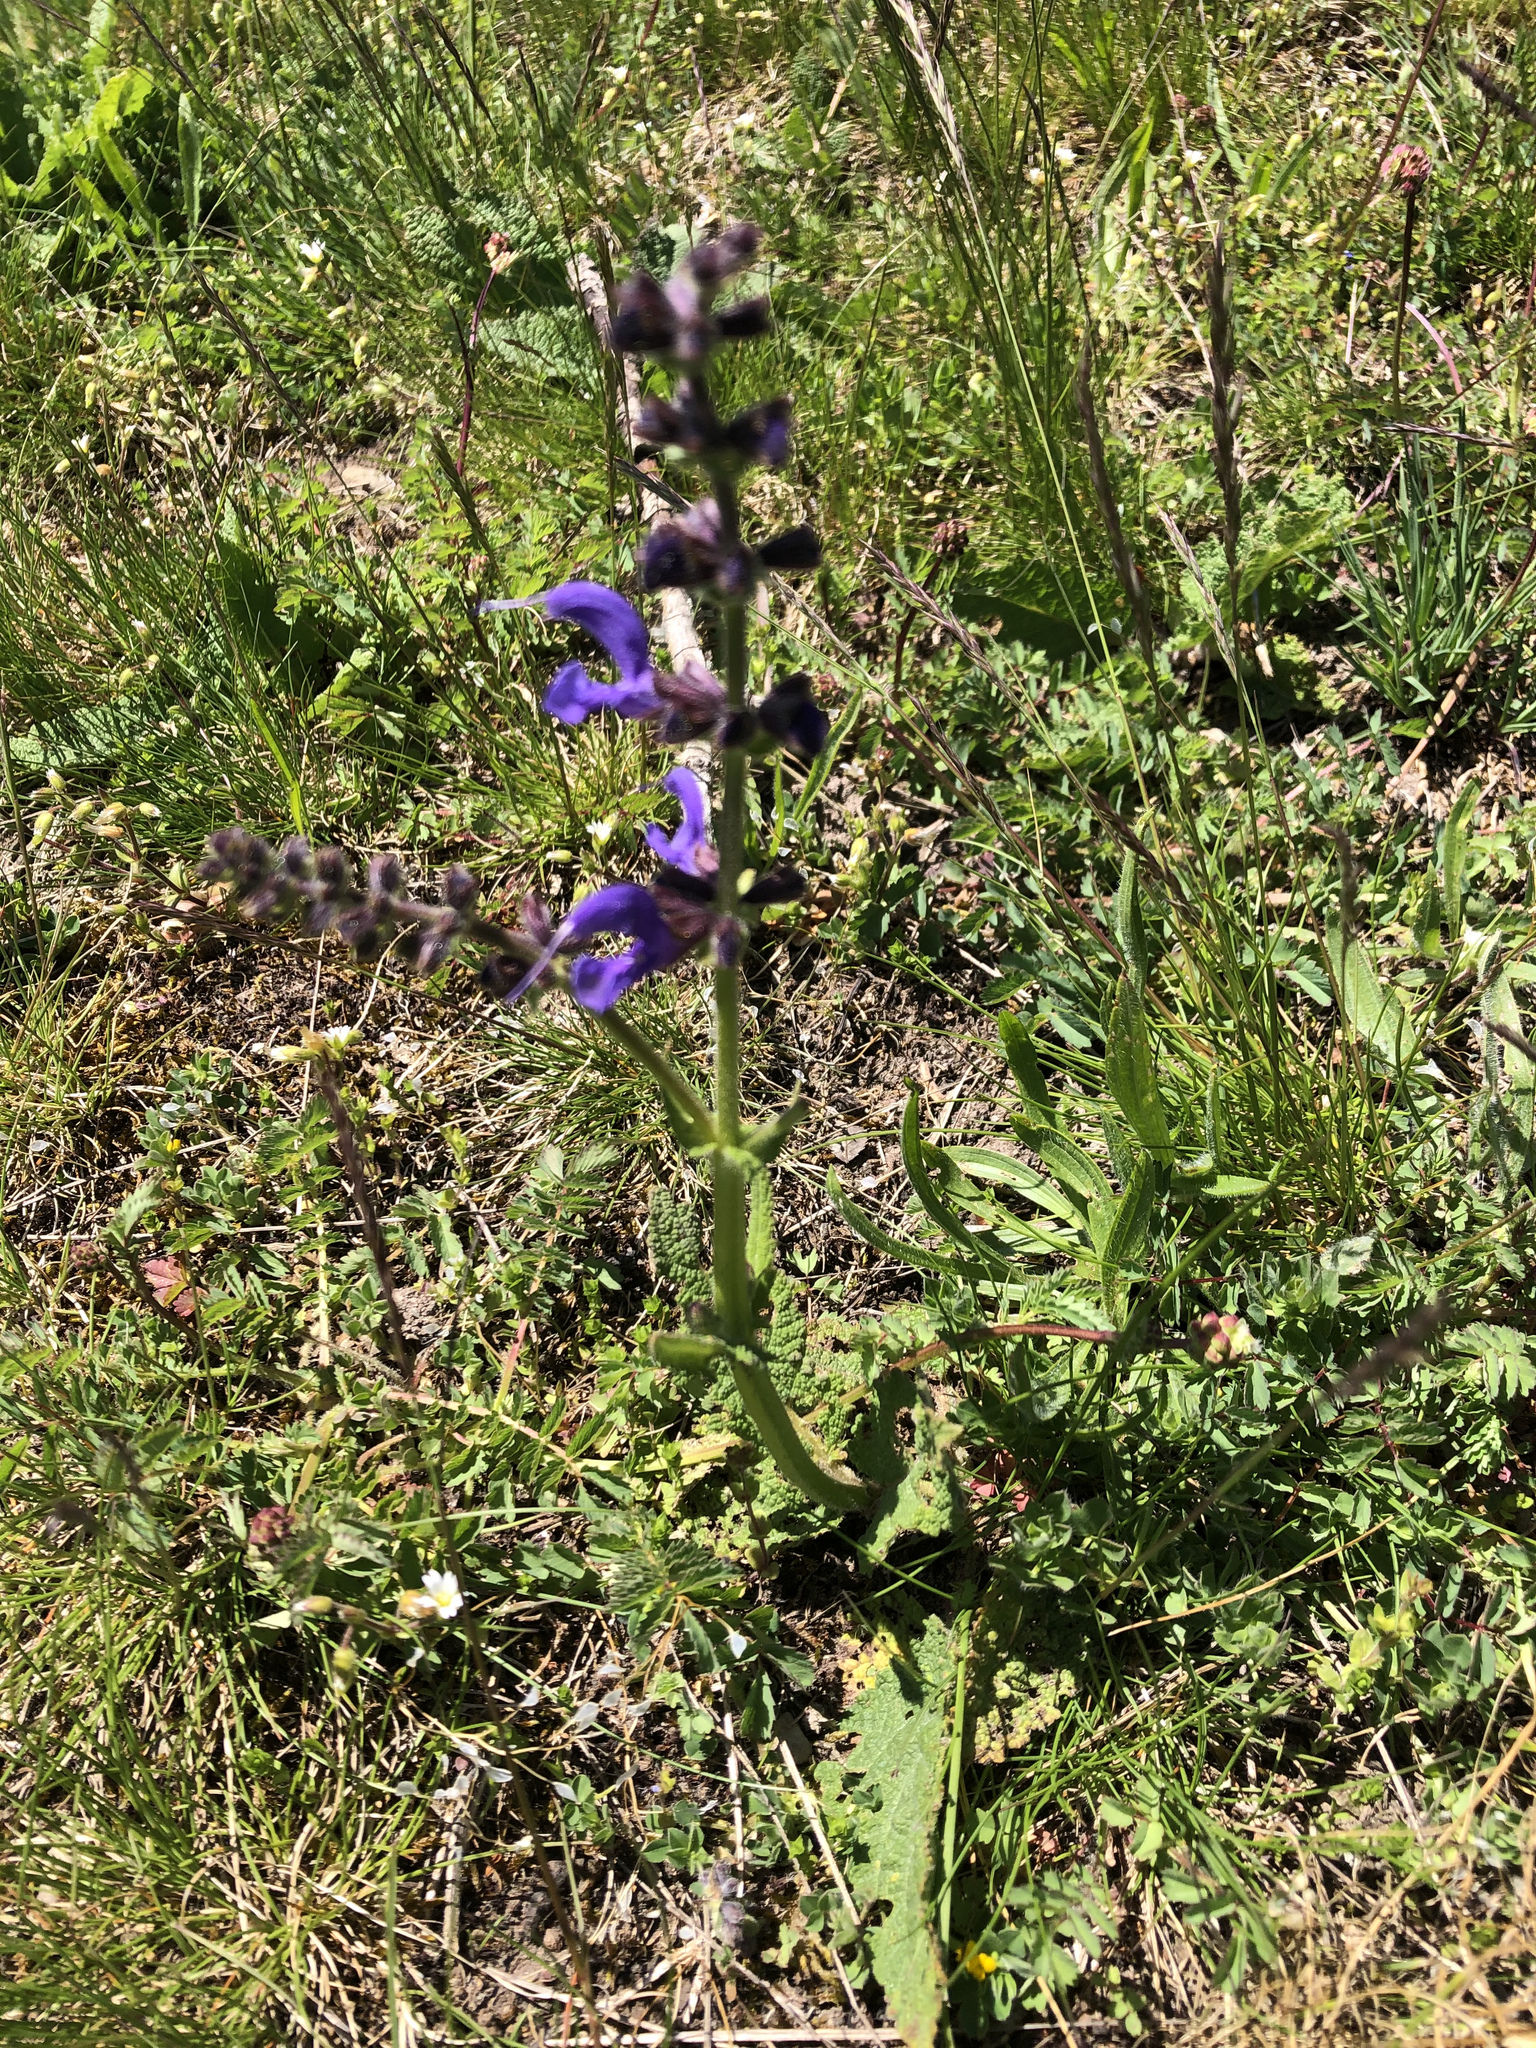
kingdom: Plantae
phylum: Tracheophyta
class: Magnoliopsida
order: Lamiales
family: Lamiaceae
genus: Salvia
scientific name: Salvia pratensis
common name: Meadow sage
